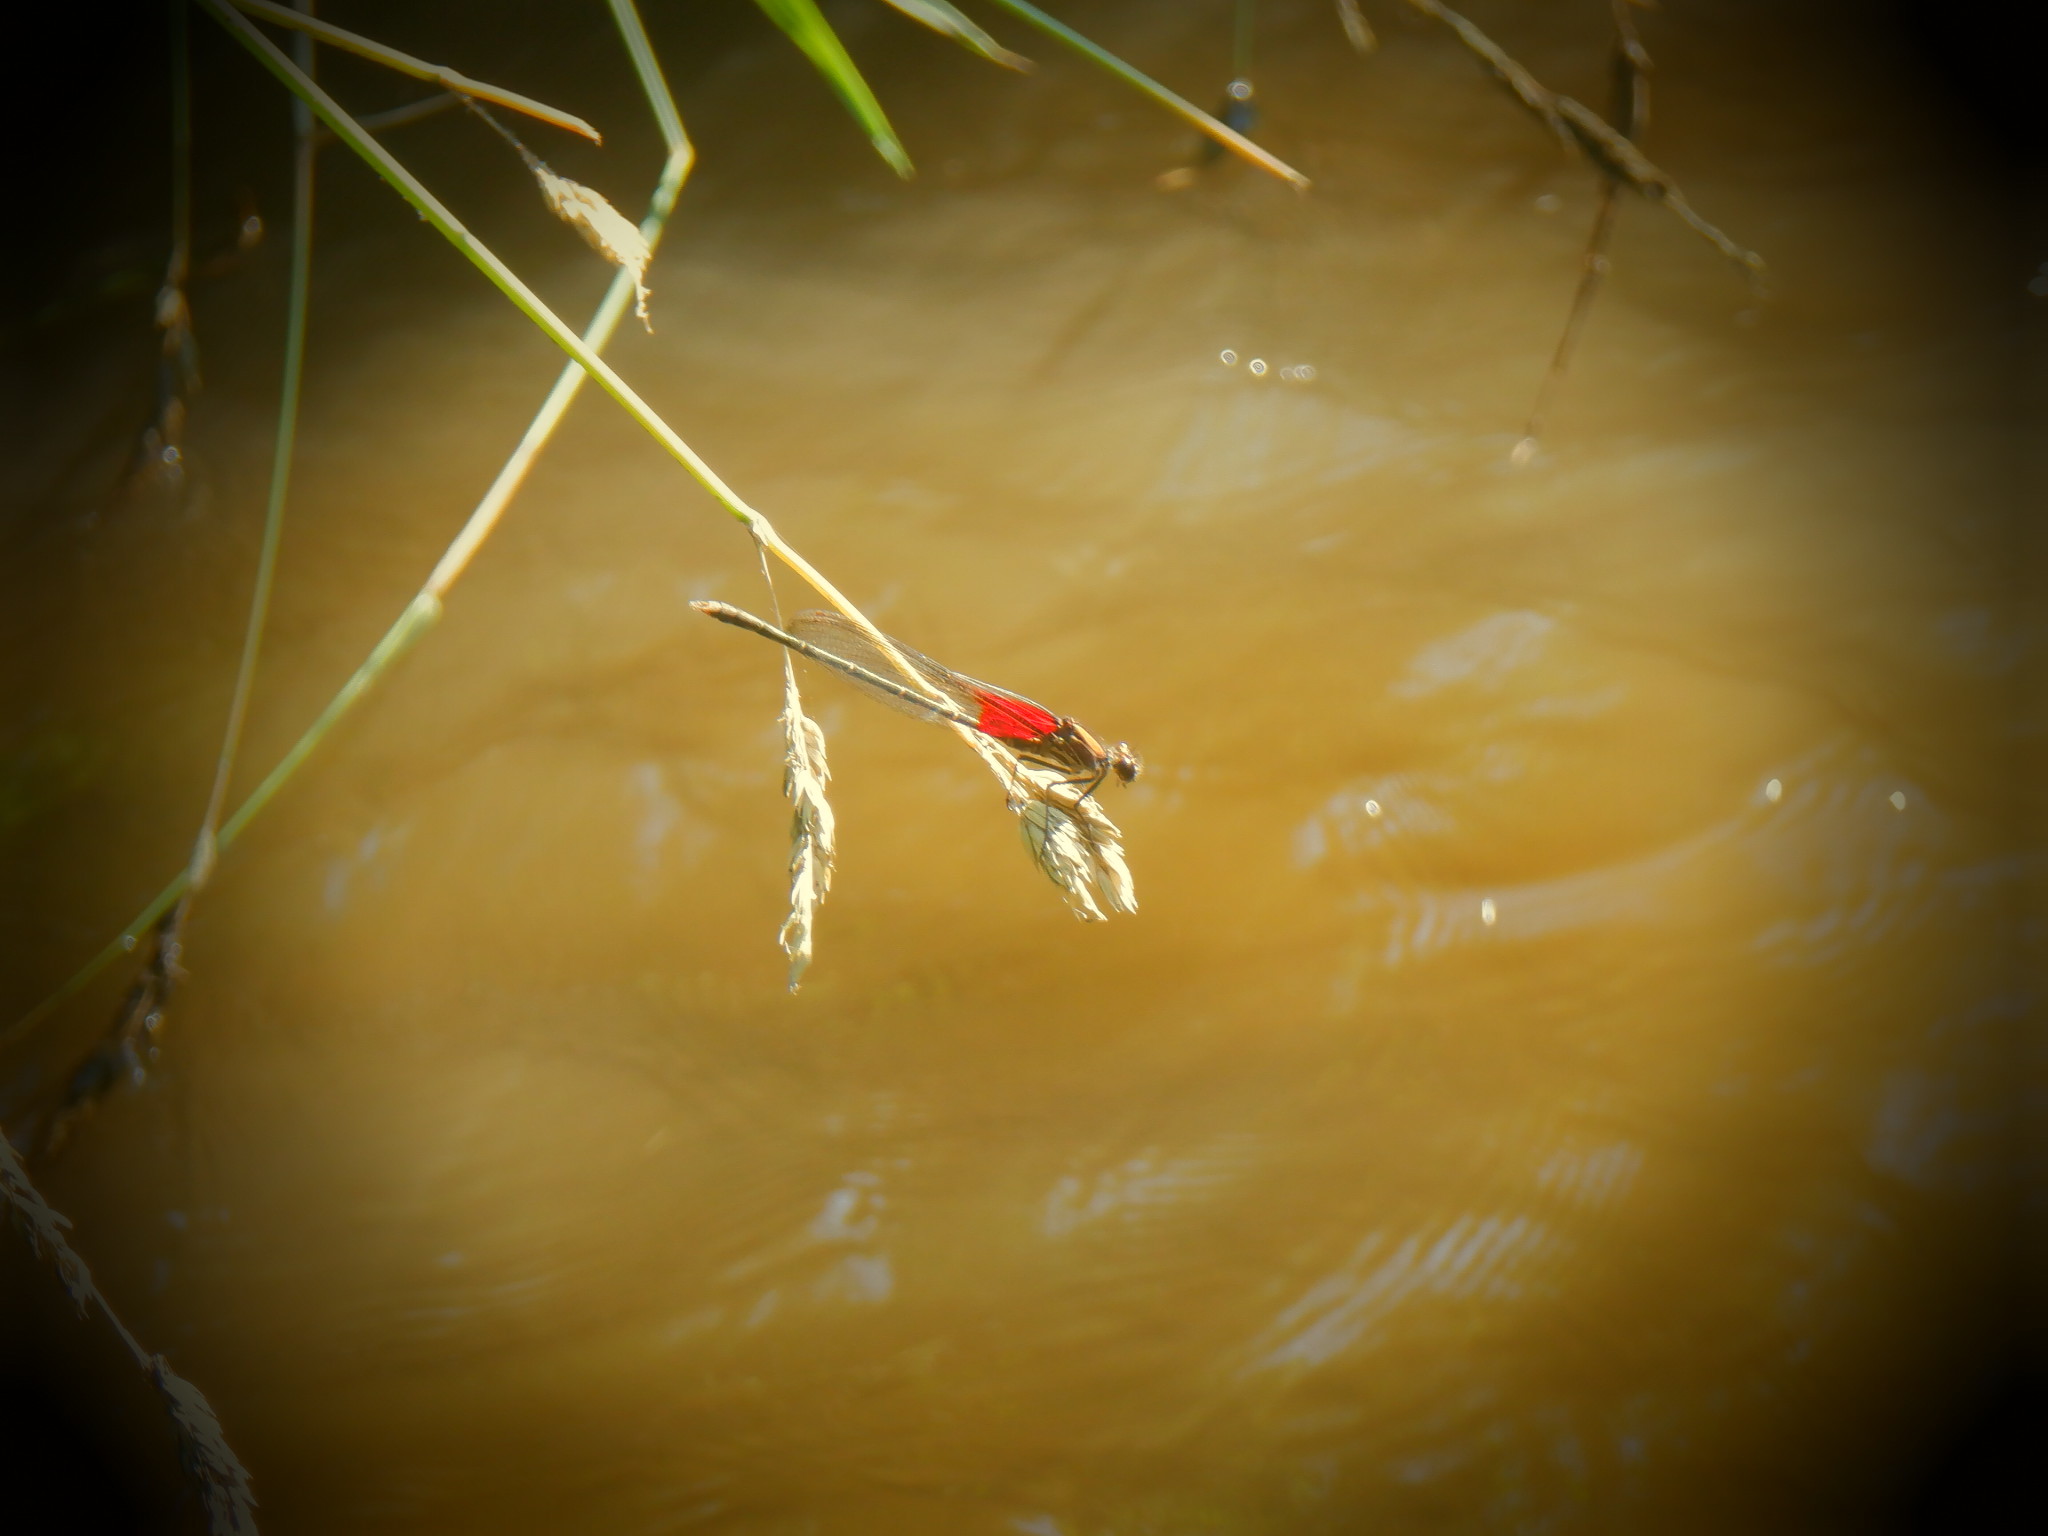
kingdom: Animalia
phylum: Arthropoda
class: Insecta
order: Odonata
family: Calopterygidae
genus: Hetaerina
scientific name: Hetaerina americana
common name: American rubyspot
